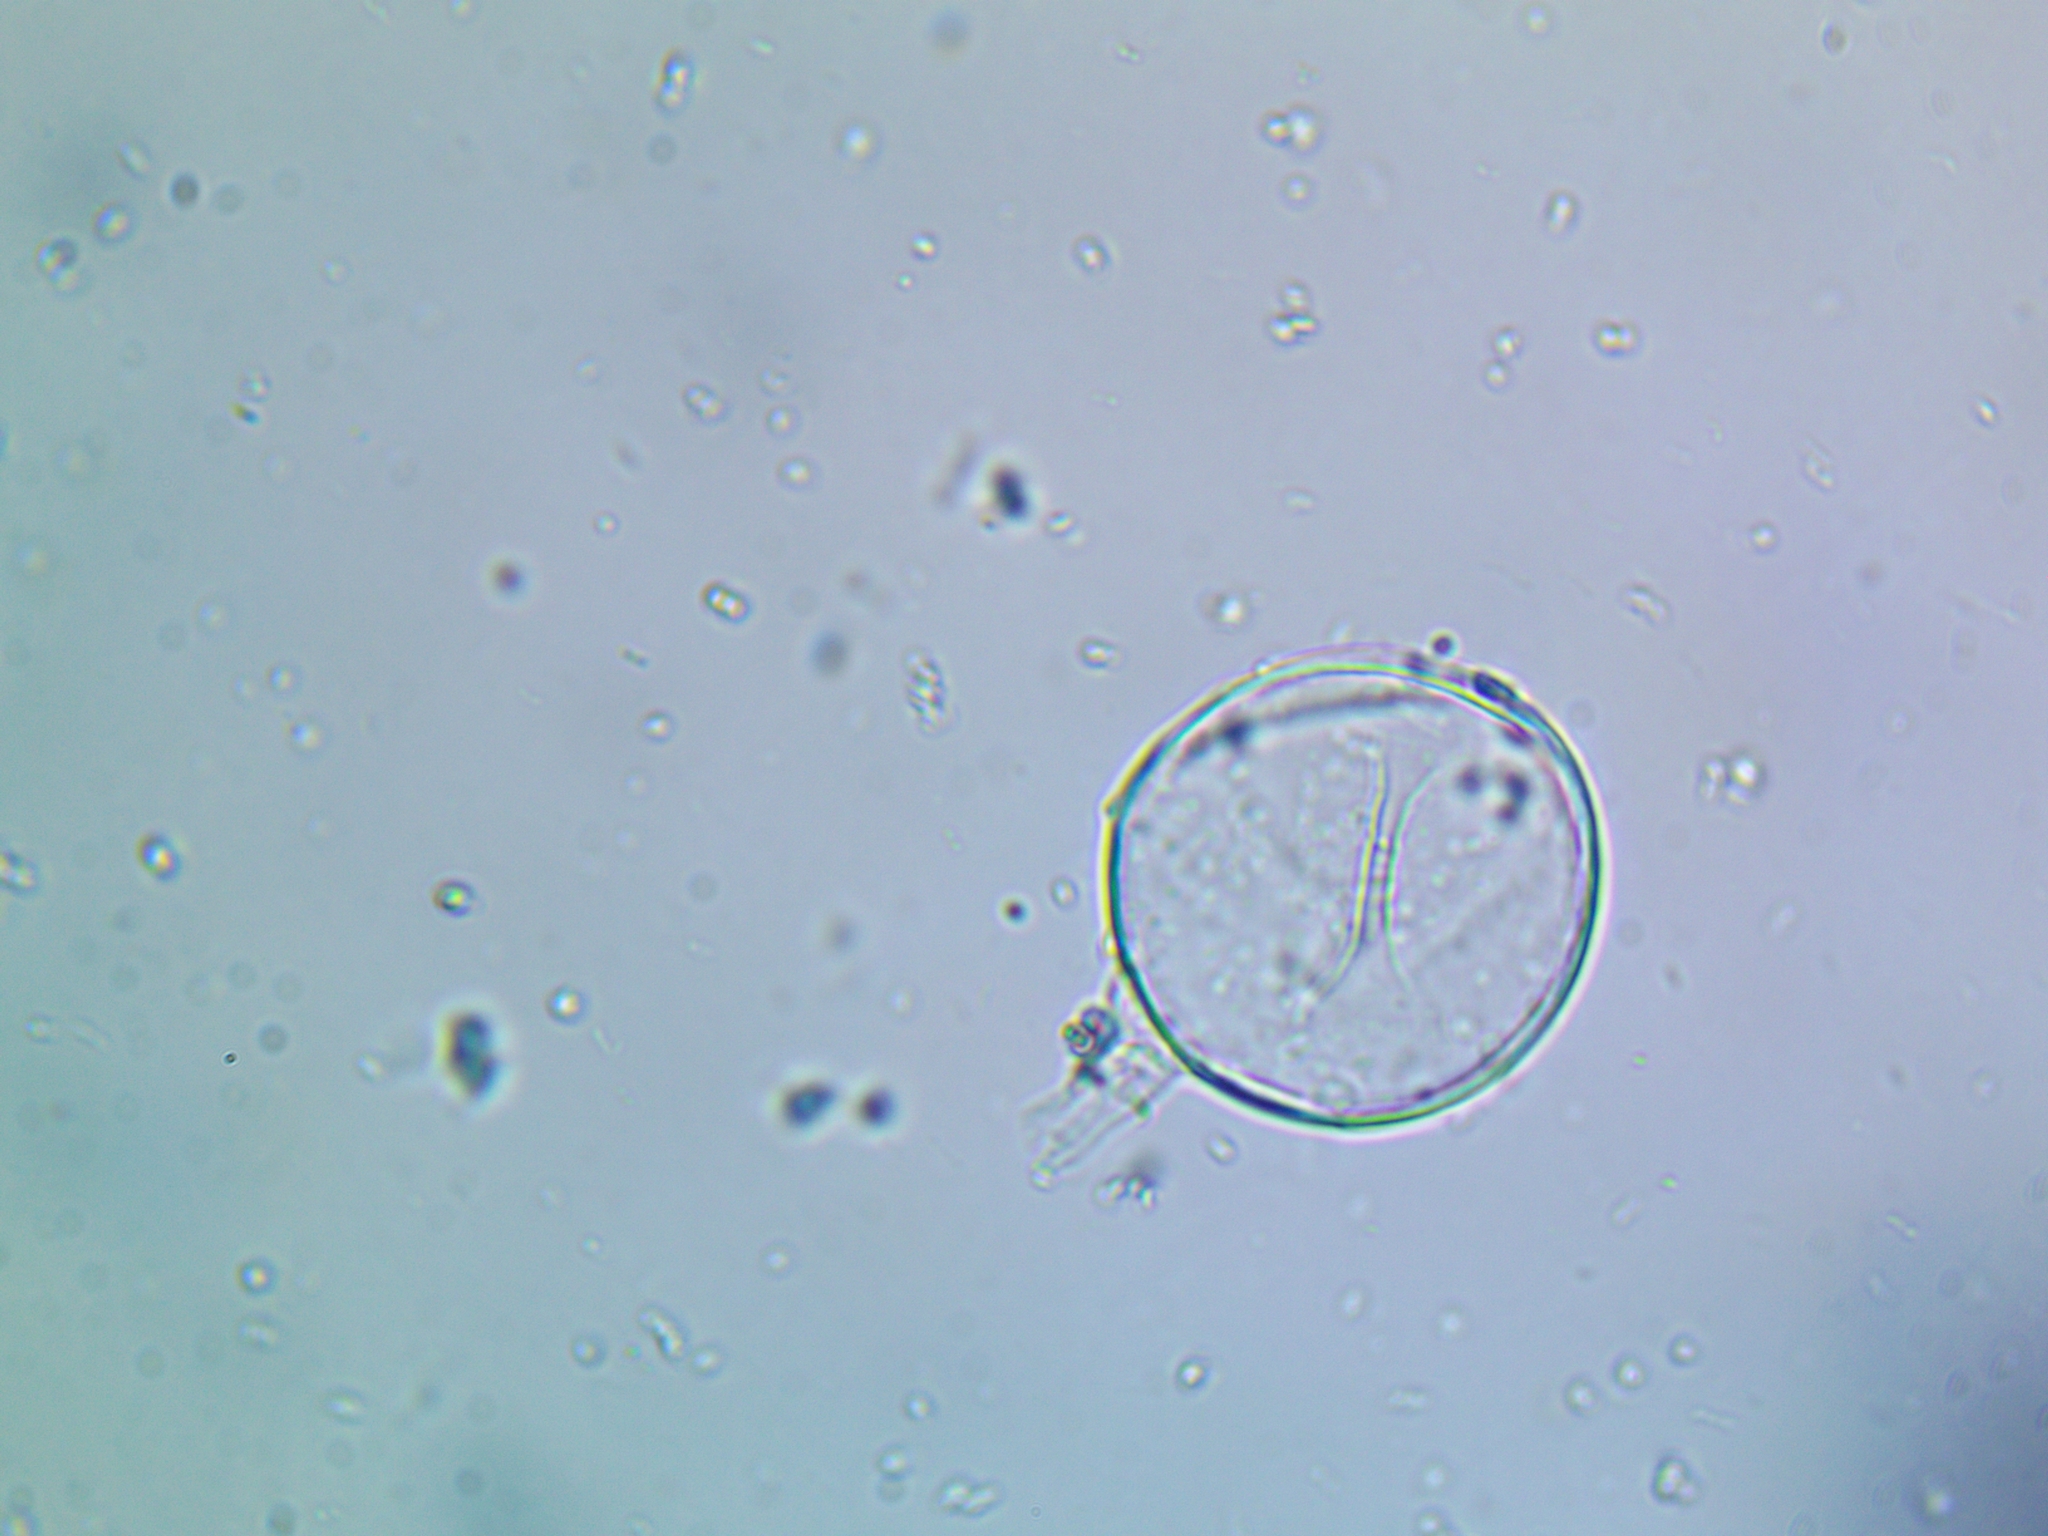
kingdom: Fungi
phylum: Basidiomycota
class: Agaricomycetes
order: Agaricales
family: Psathyrellaceae
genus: Coprinellus
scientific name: Coprinellus domesticus
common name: Firerug inkcap
